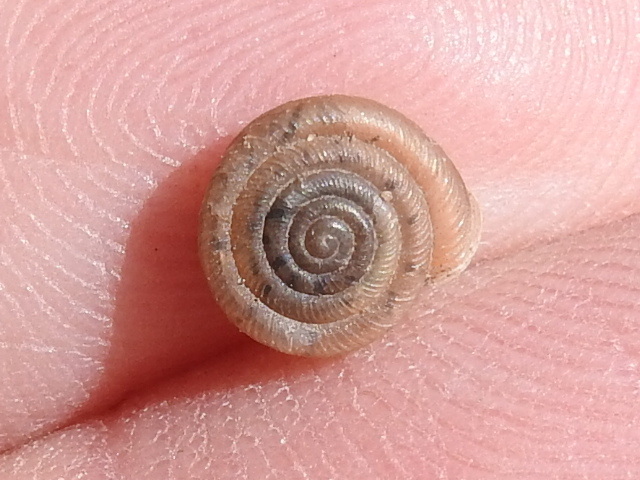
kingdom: Animalia
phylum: Mollusca
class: Gastropoda
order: Stylommatophora
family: Polygyridae
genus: Polygyra
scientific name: Polygyra cereolus
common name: Southern flatcone snail
